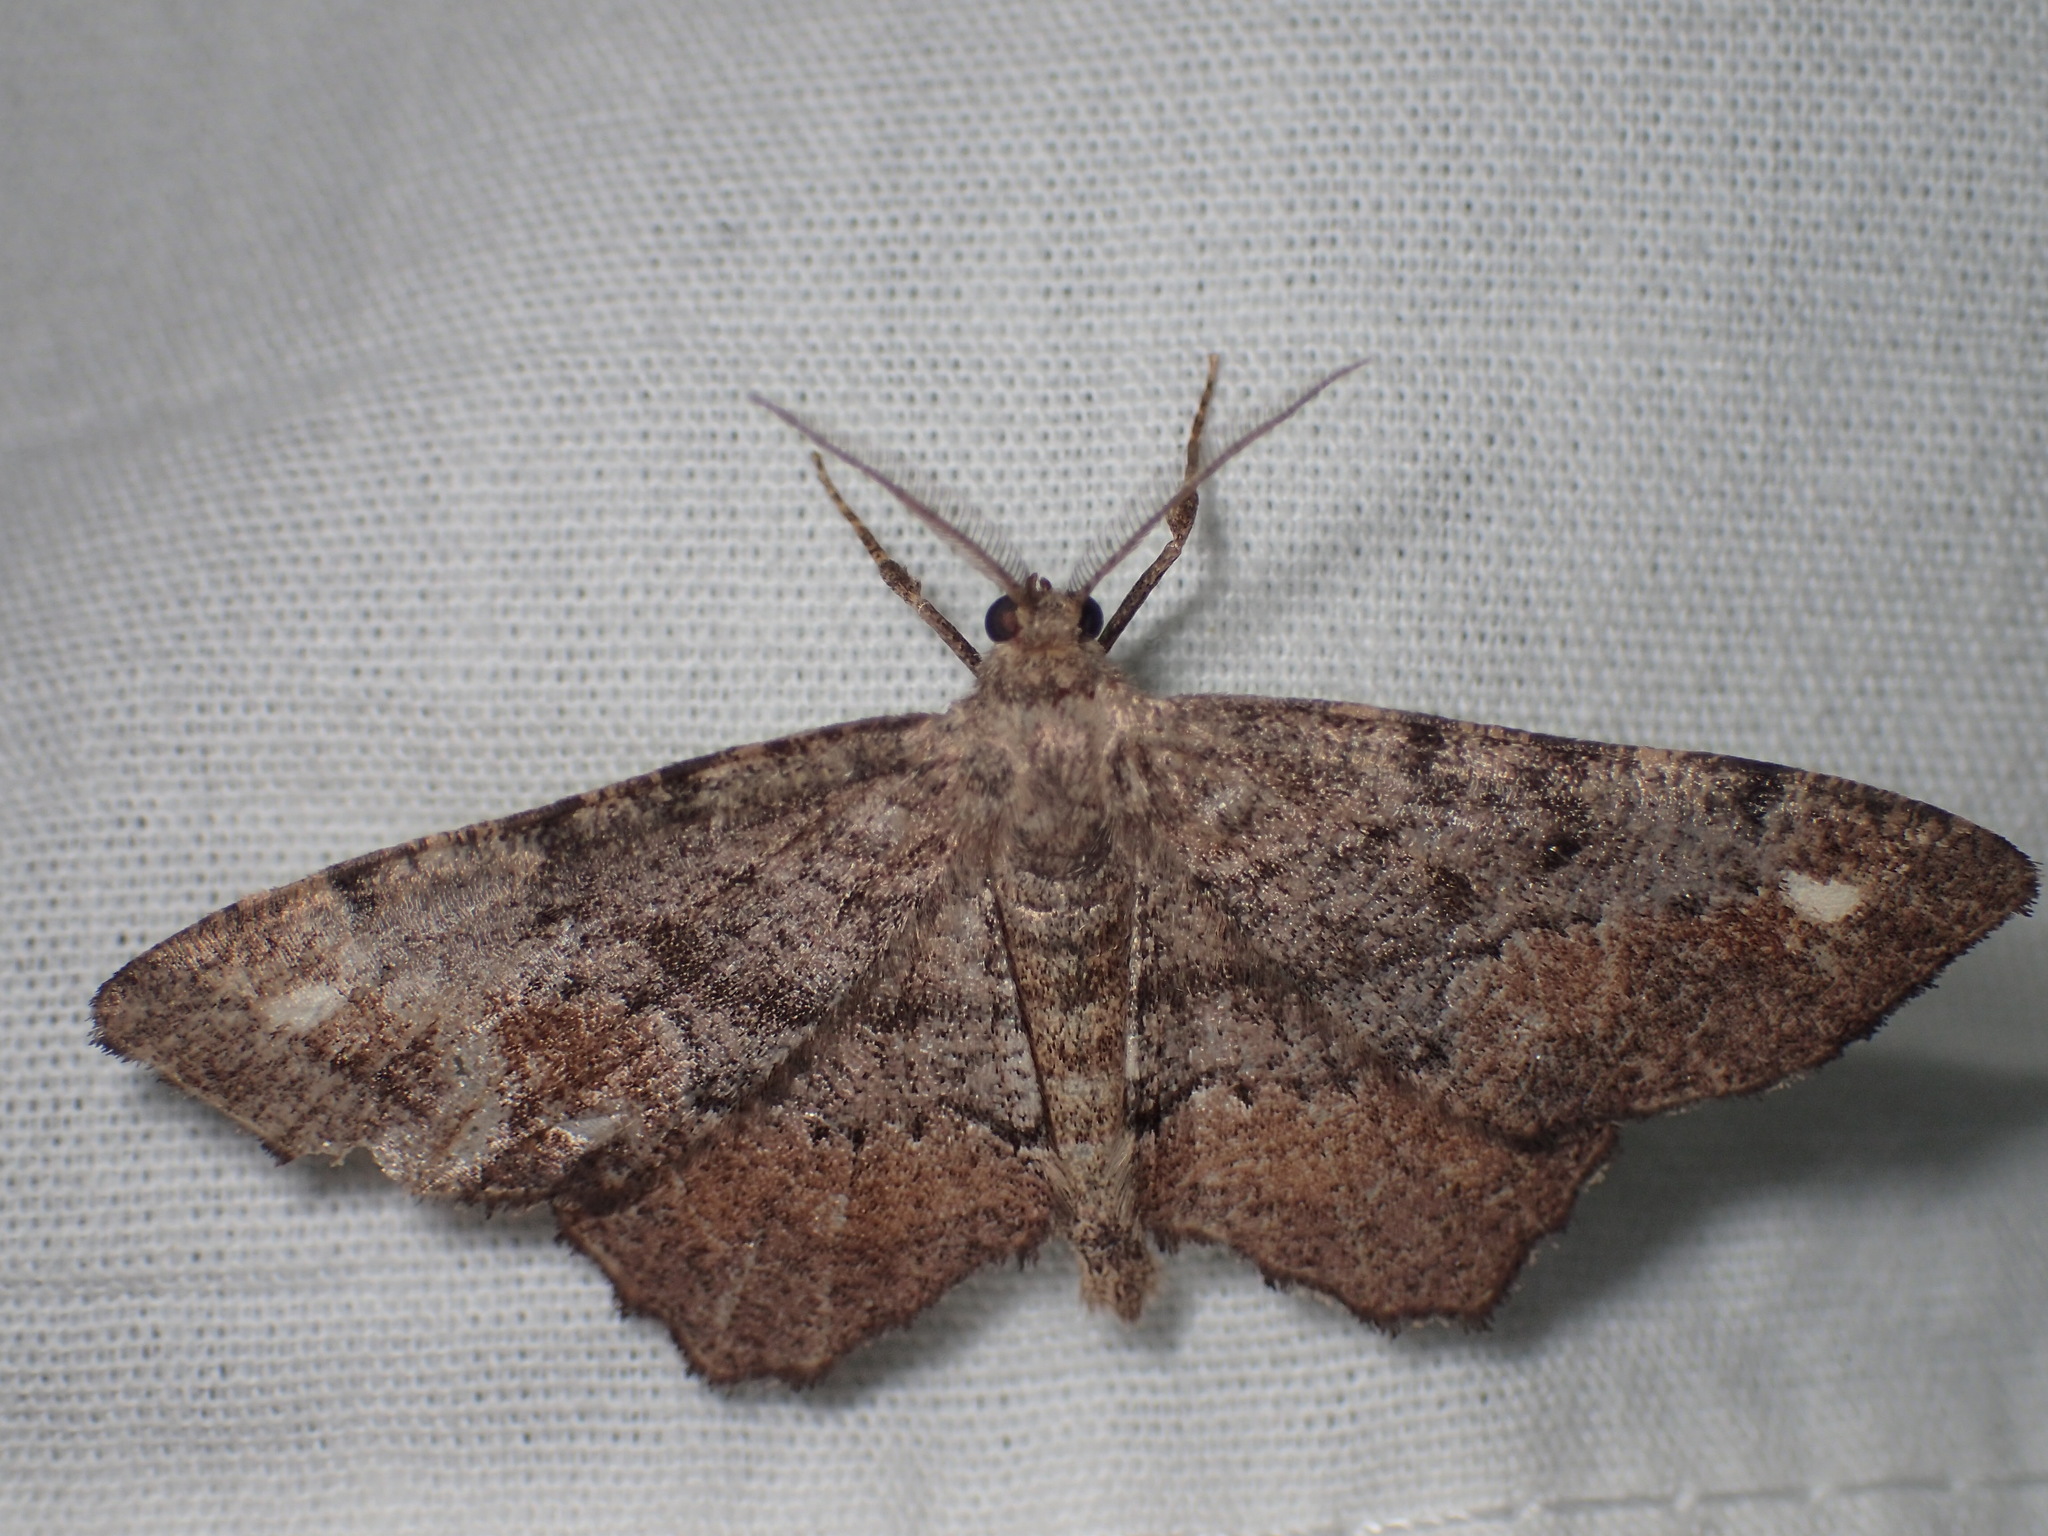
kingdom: Animalia
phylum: Arthropoda
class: Insecta
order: Lepidoptera
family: Geometridae
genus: Hypagyrtis
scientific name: Hypagyrtis esther
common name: Esther moth
